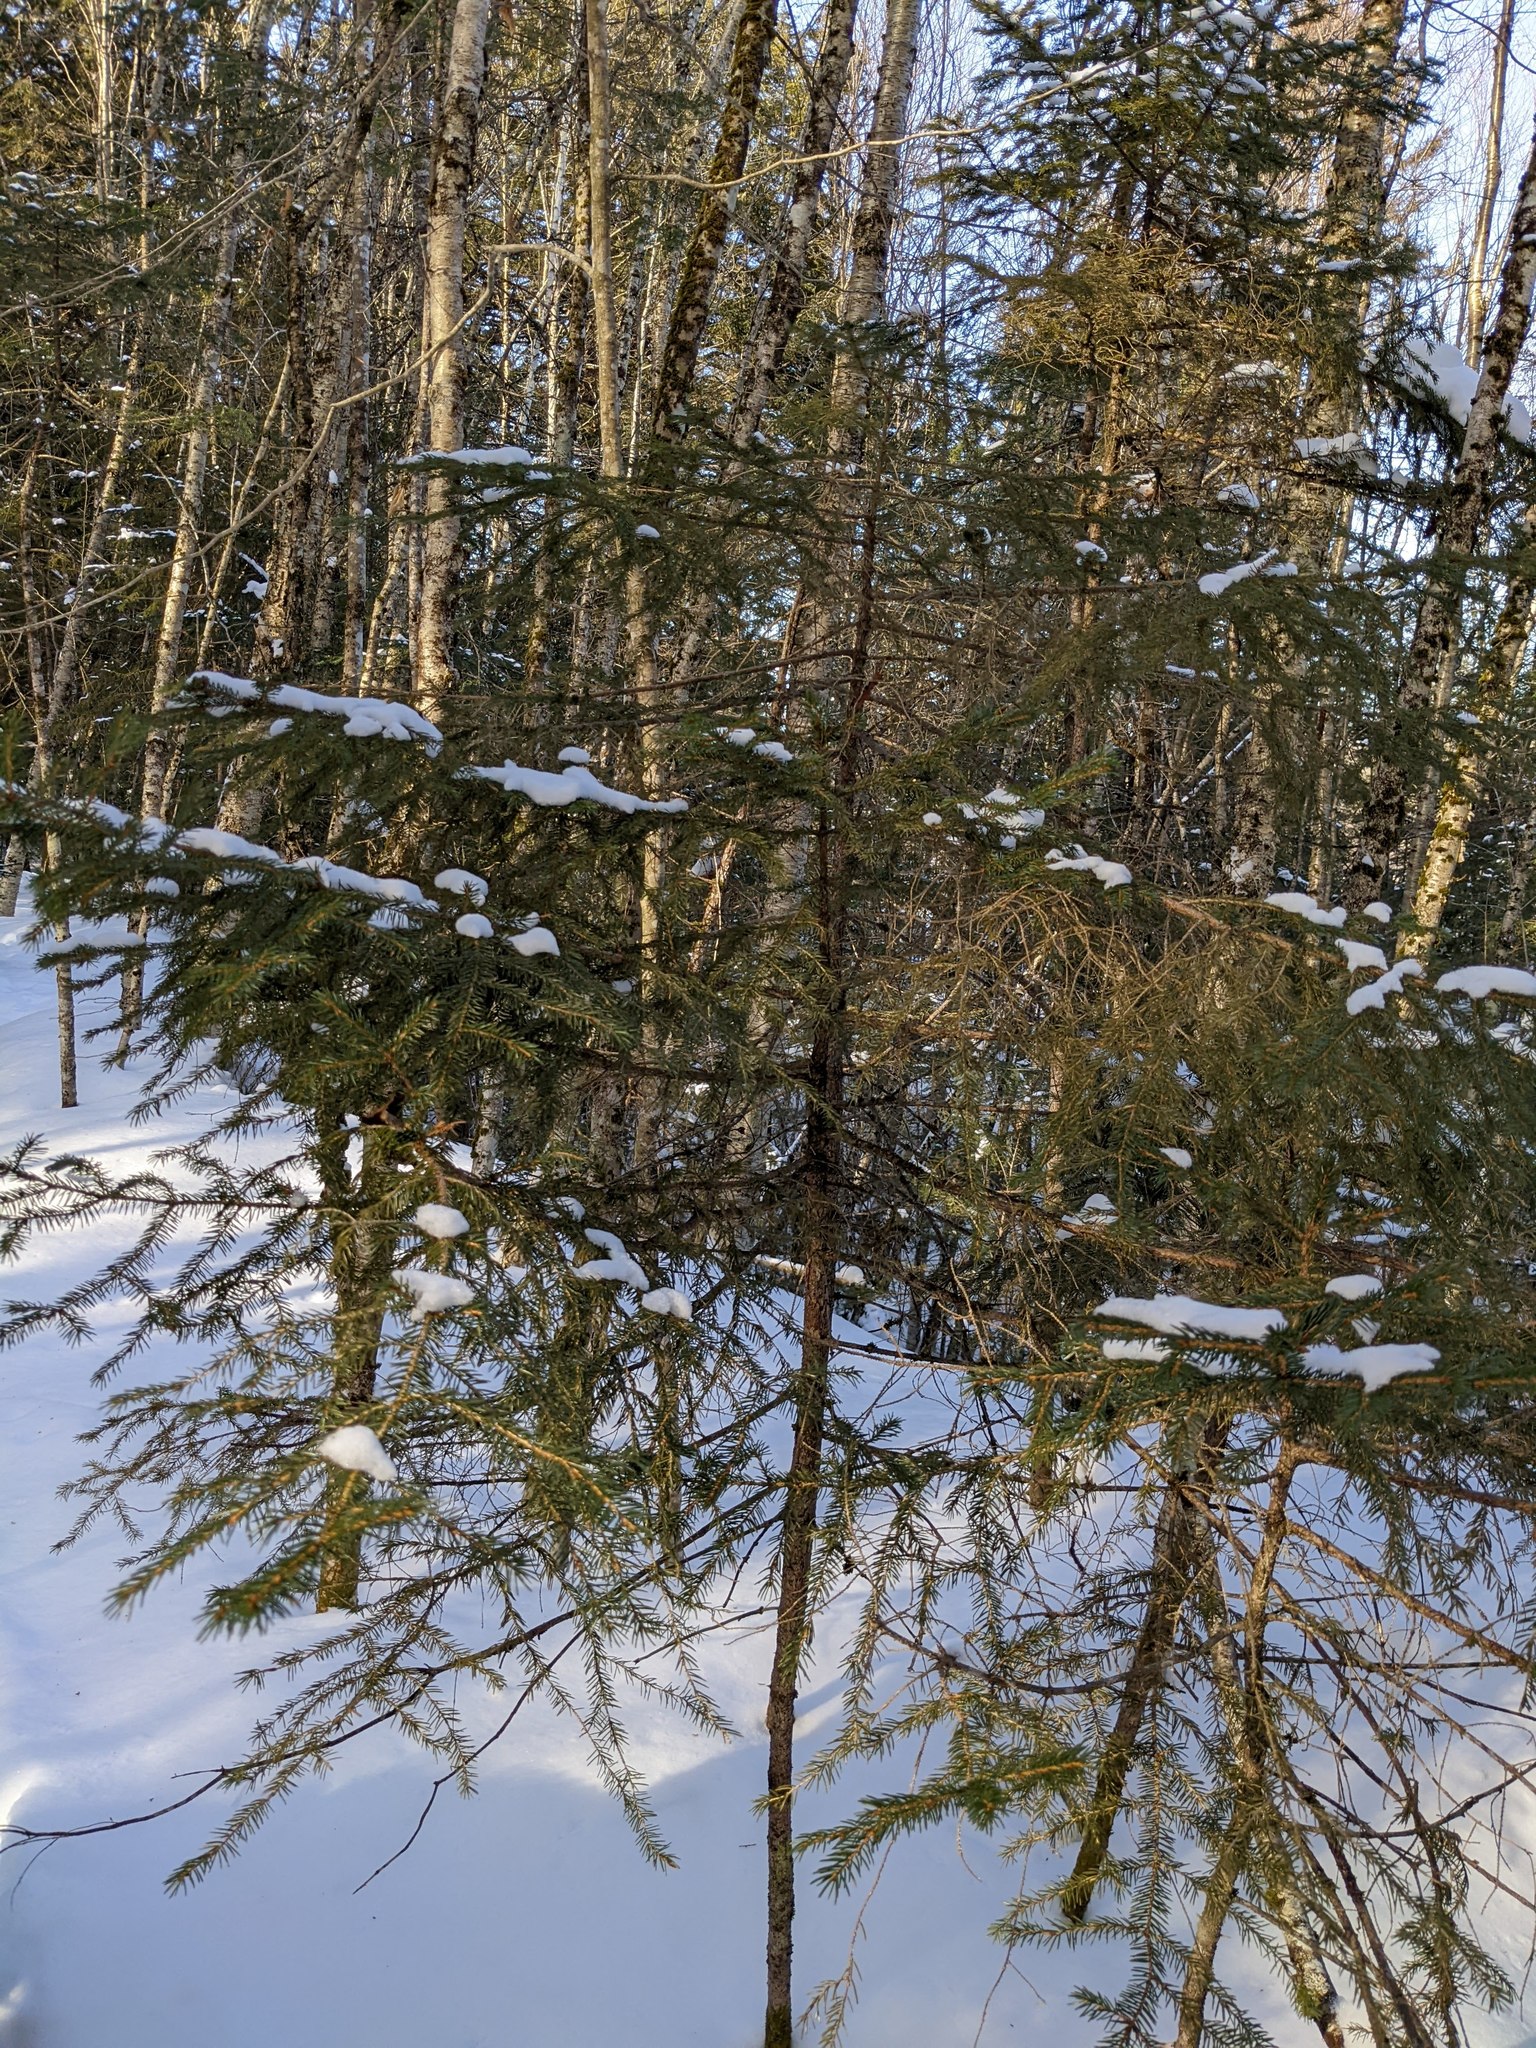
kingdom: Plantae
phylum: Tracheophyta
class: Pinopsida
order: Pinales
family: Pinaceae
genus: Picea
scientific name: Picea rubens
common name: Red spruce
